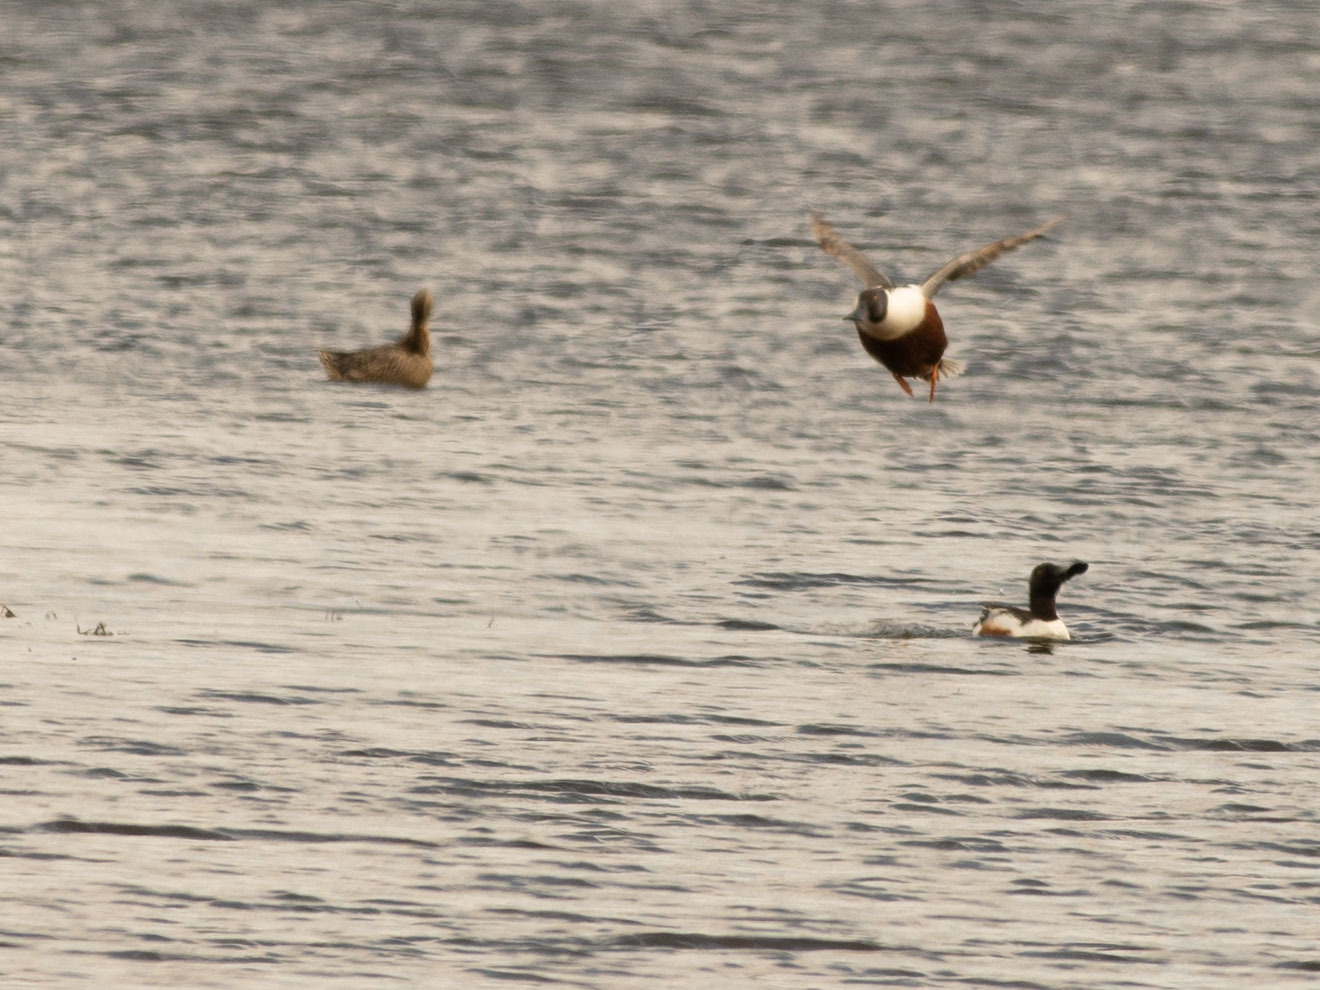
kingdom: Animalia
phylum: Chordata
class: Aves
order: Anseriformes
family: Anatidae
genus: Spatula
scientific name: Spatula clypeata
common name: Northern shoveler
